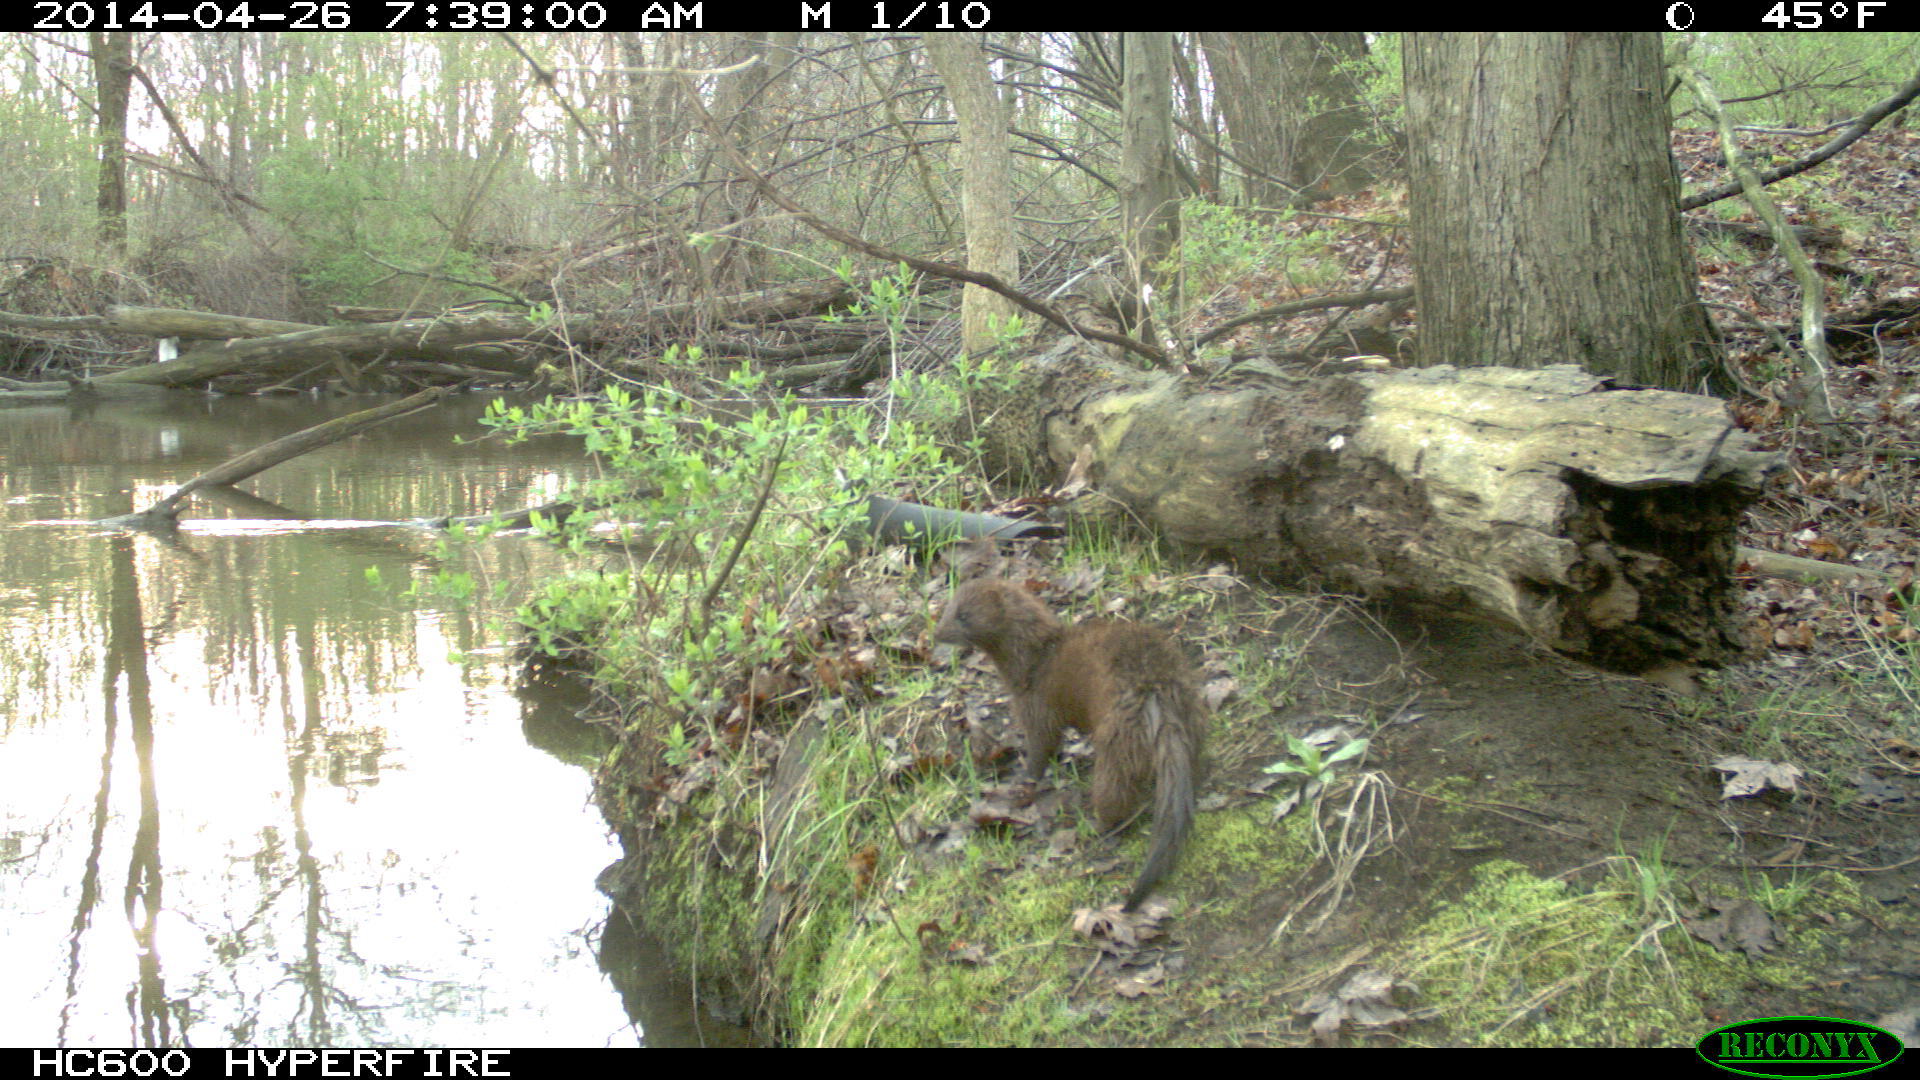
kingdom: Animalia
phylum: Chordata
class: Mammalia
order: Carnivora
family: Mustelidae
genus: Mustela
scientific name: Mustela
